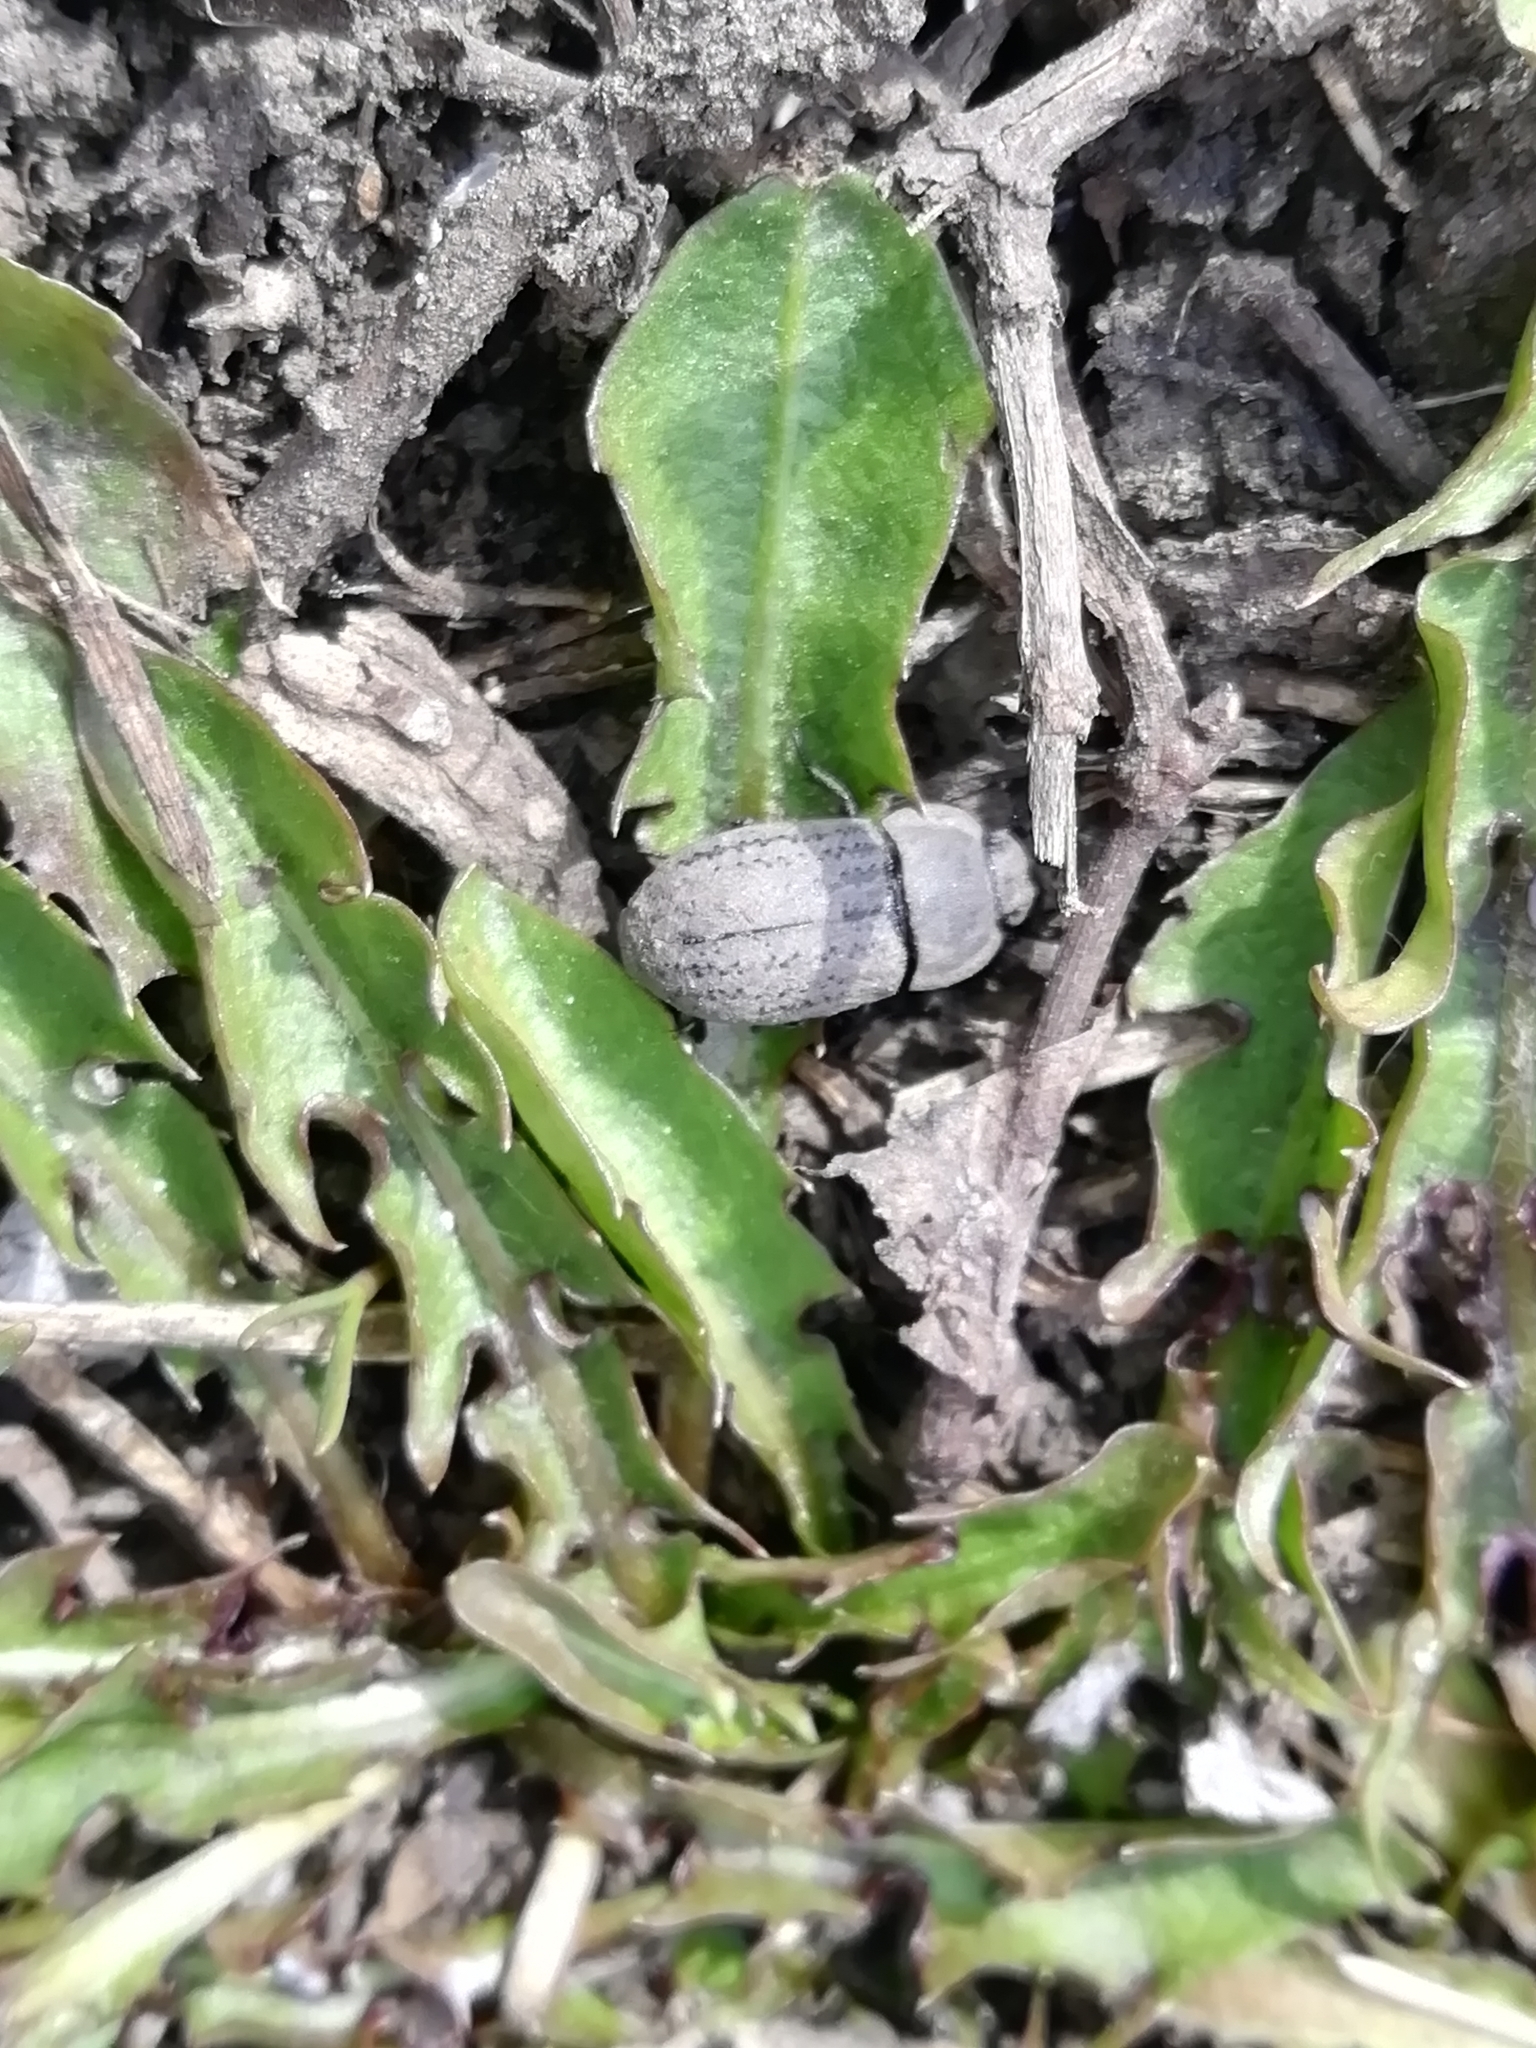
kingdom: Animalia
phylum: Arthropoda
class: Insecta
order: Coleoptera
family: Tenebrionidae
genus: Opatrum
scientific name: Opatrum sabulosum
